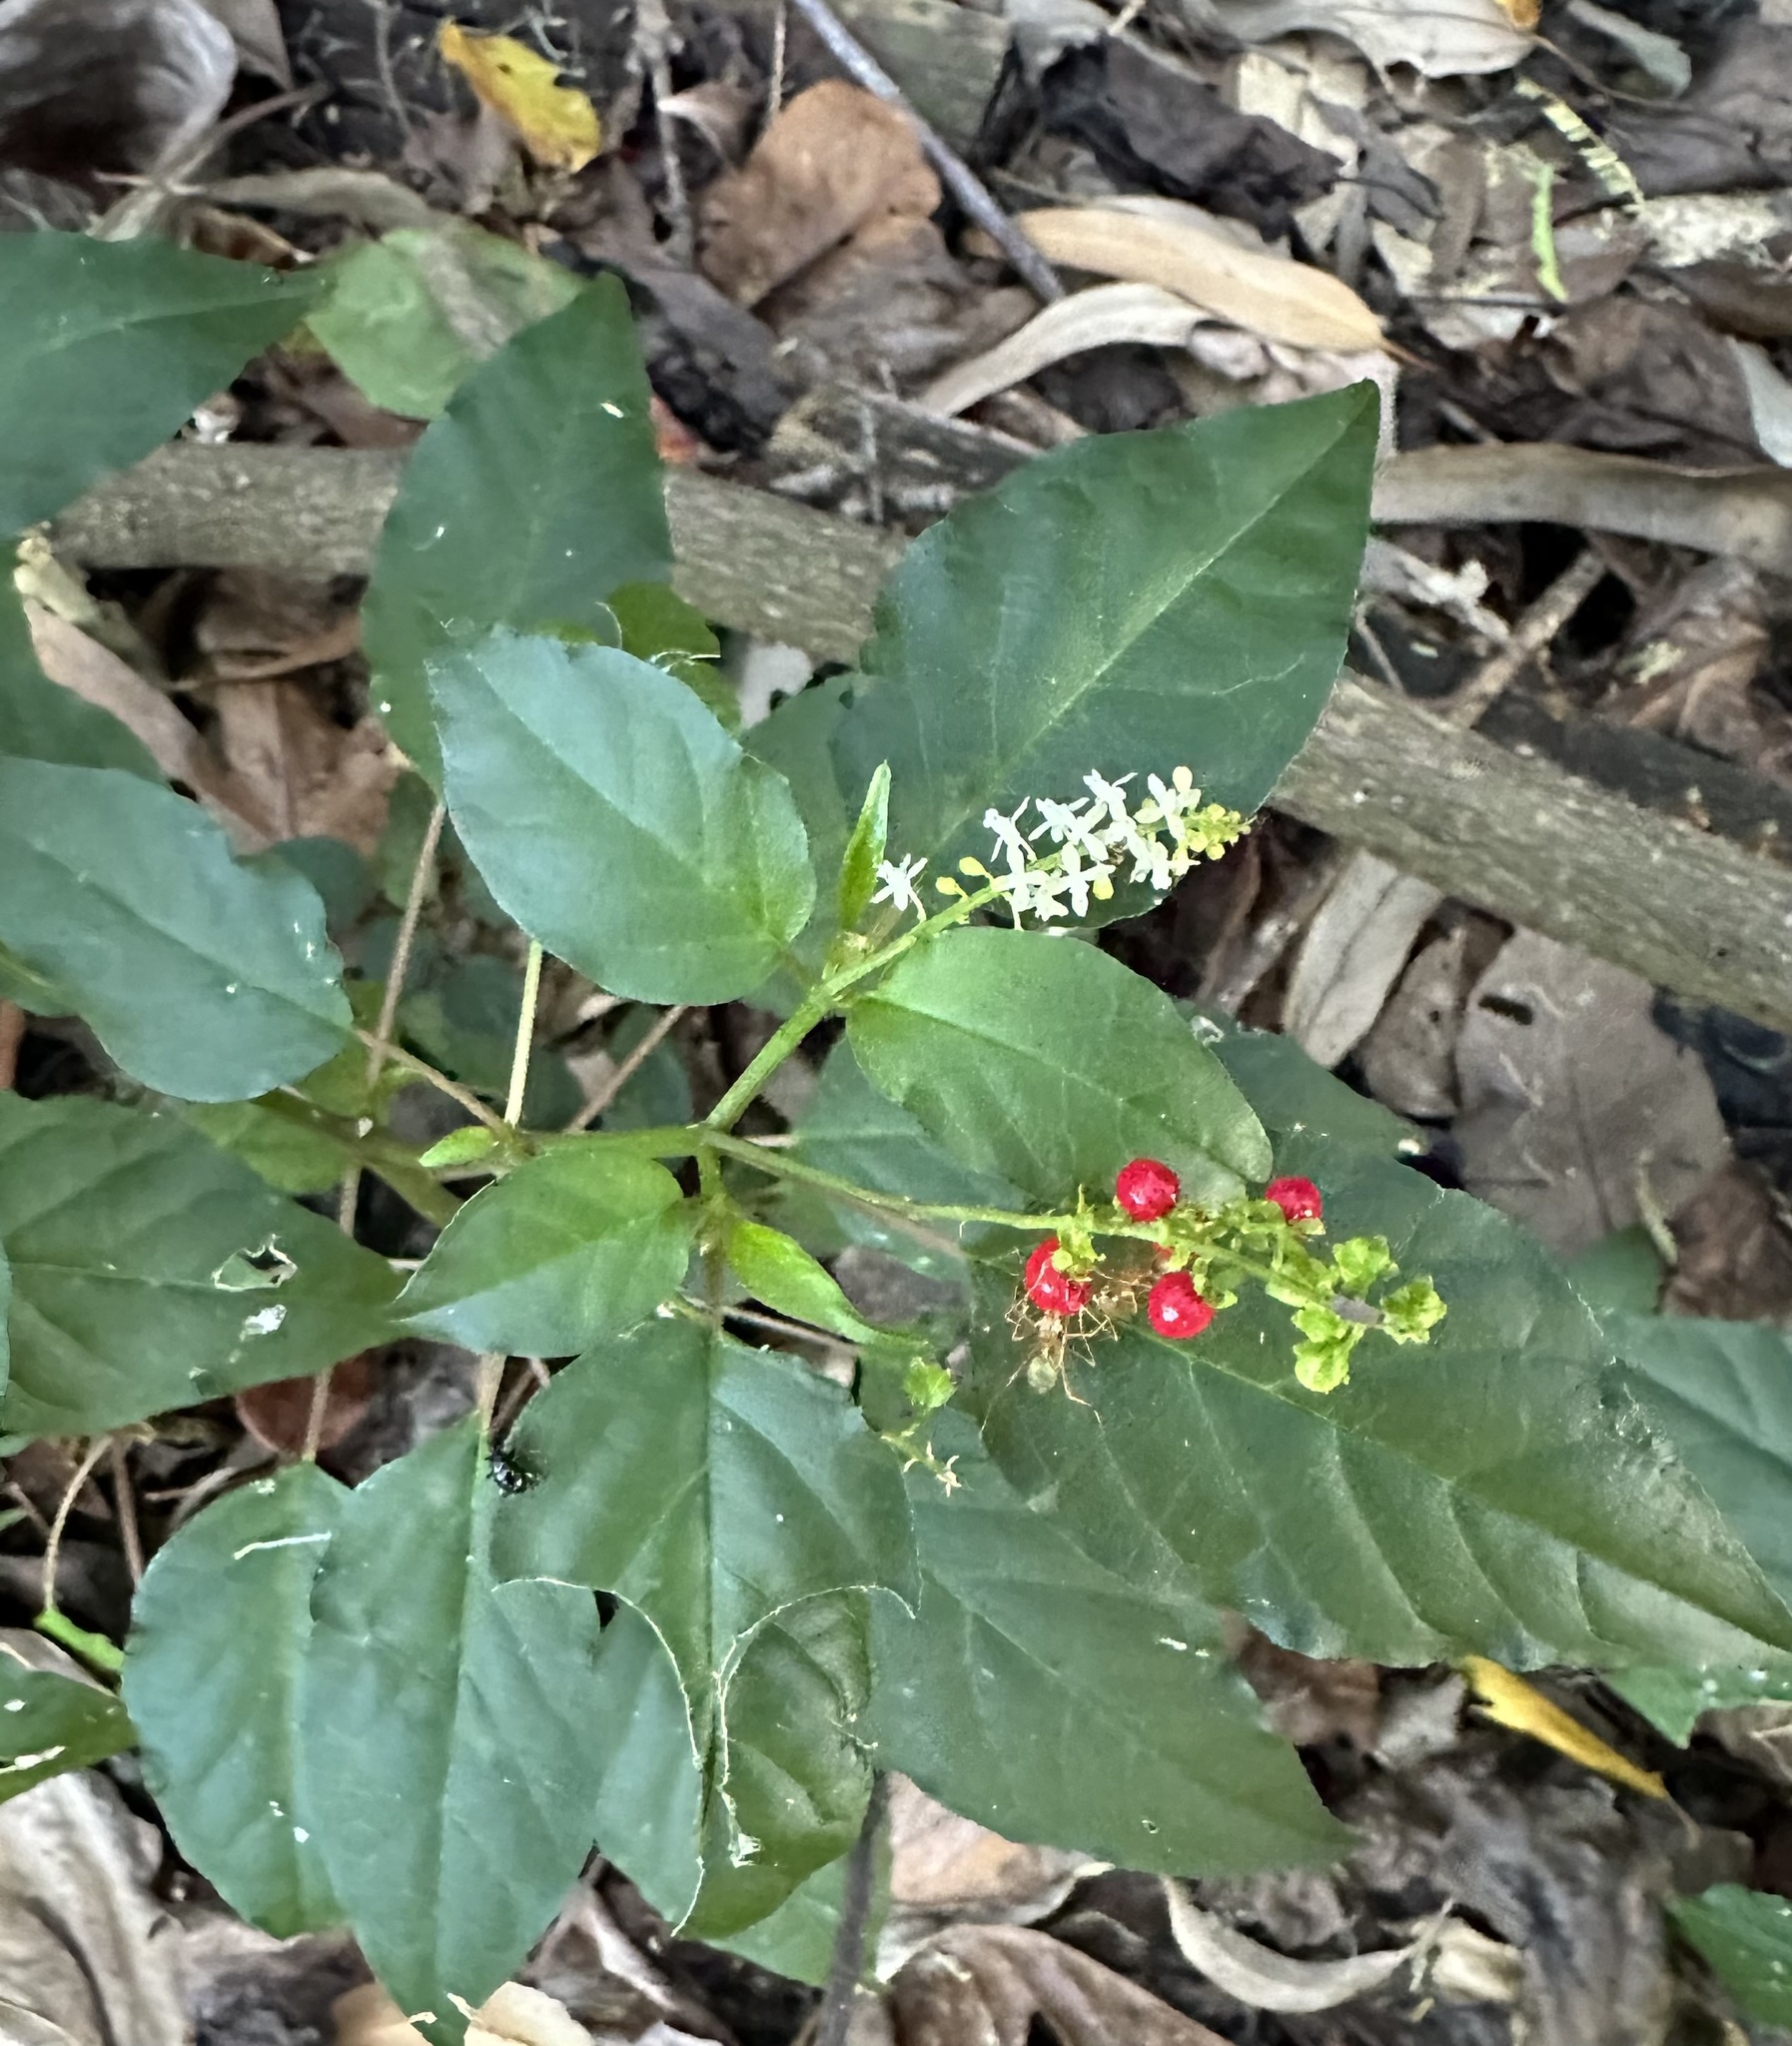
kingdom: Plantae
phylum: Tracheophyta
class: Magnoliopsida
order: Caryophyllales
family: Phytolaccaceae
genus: Rivina
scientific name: Rivina humilis
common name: Rougeplant
